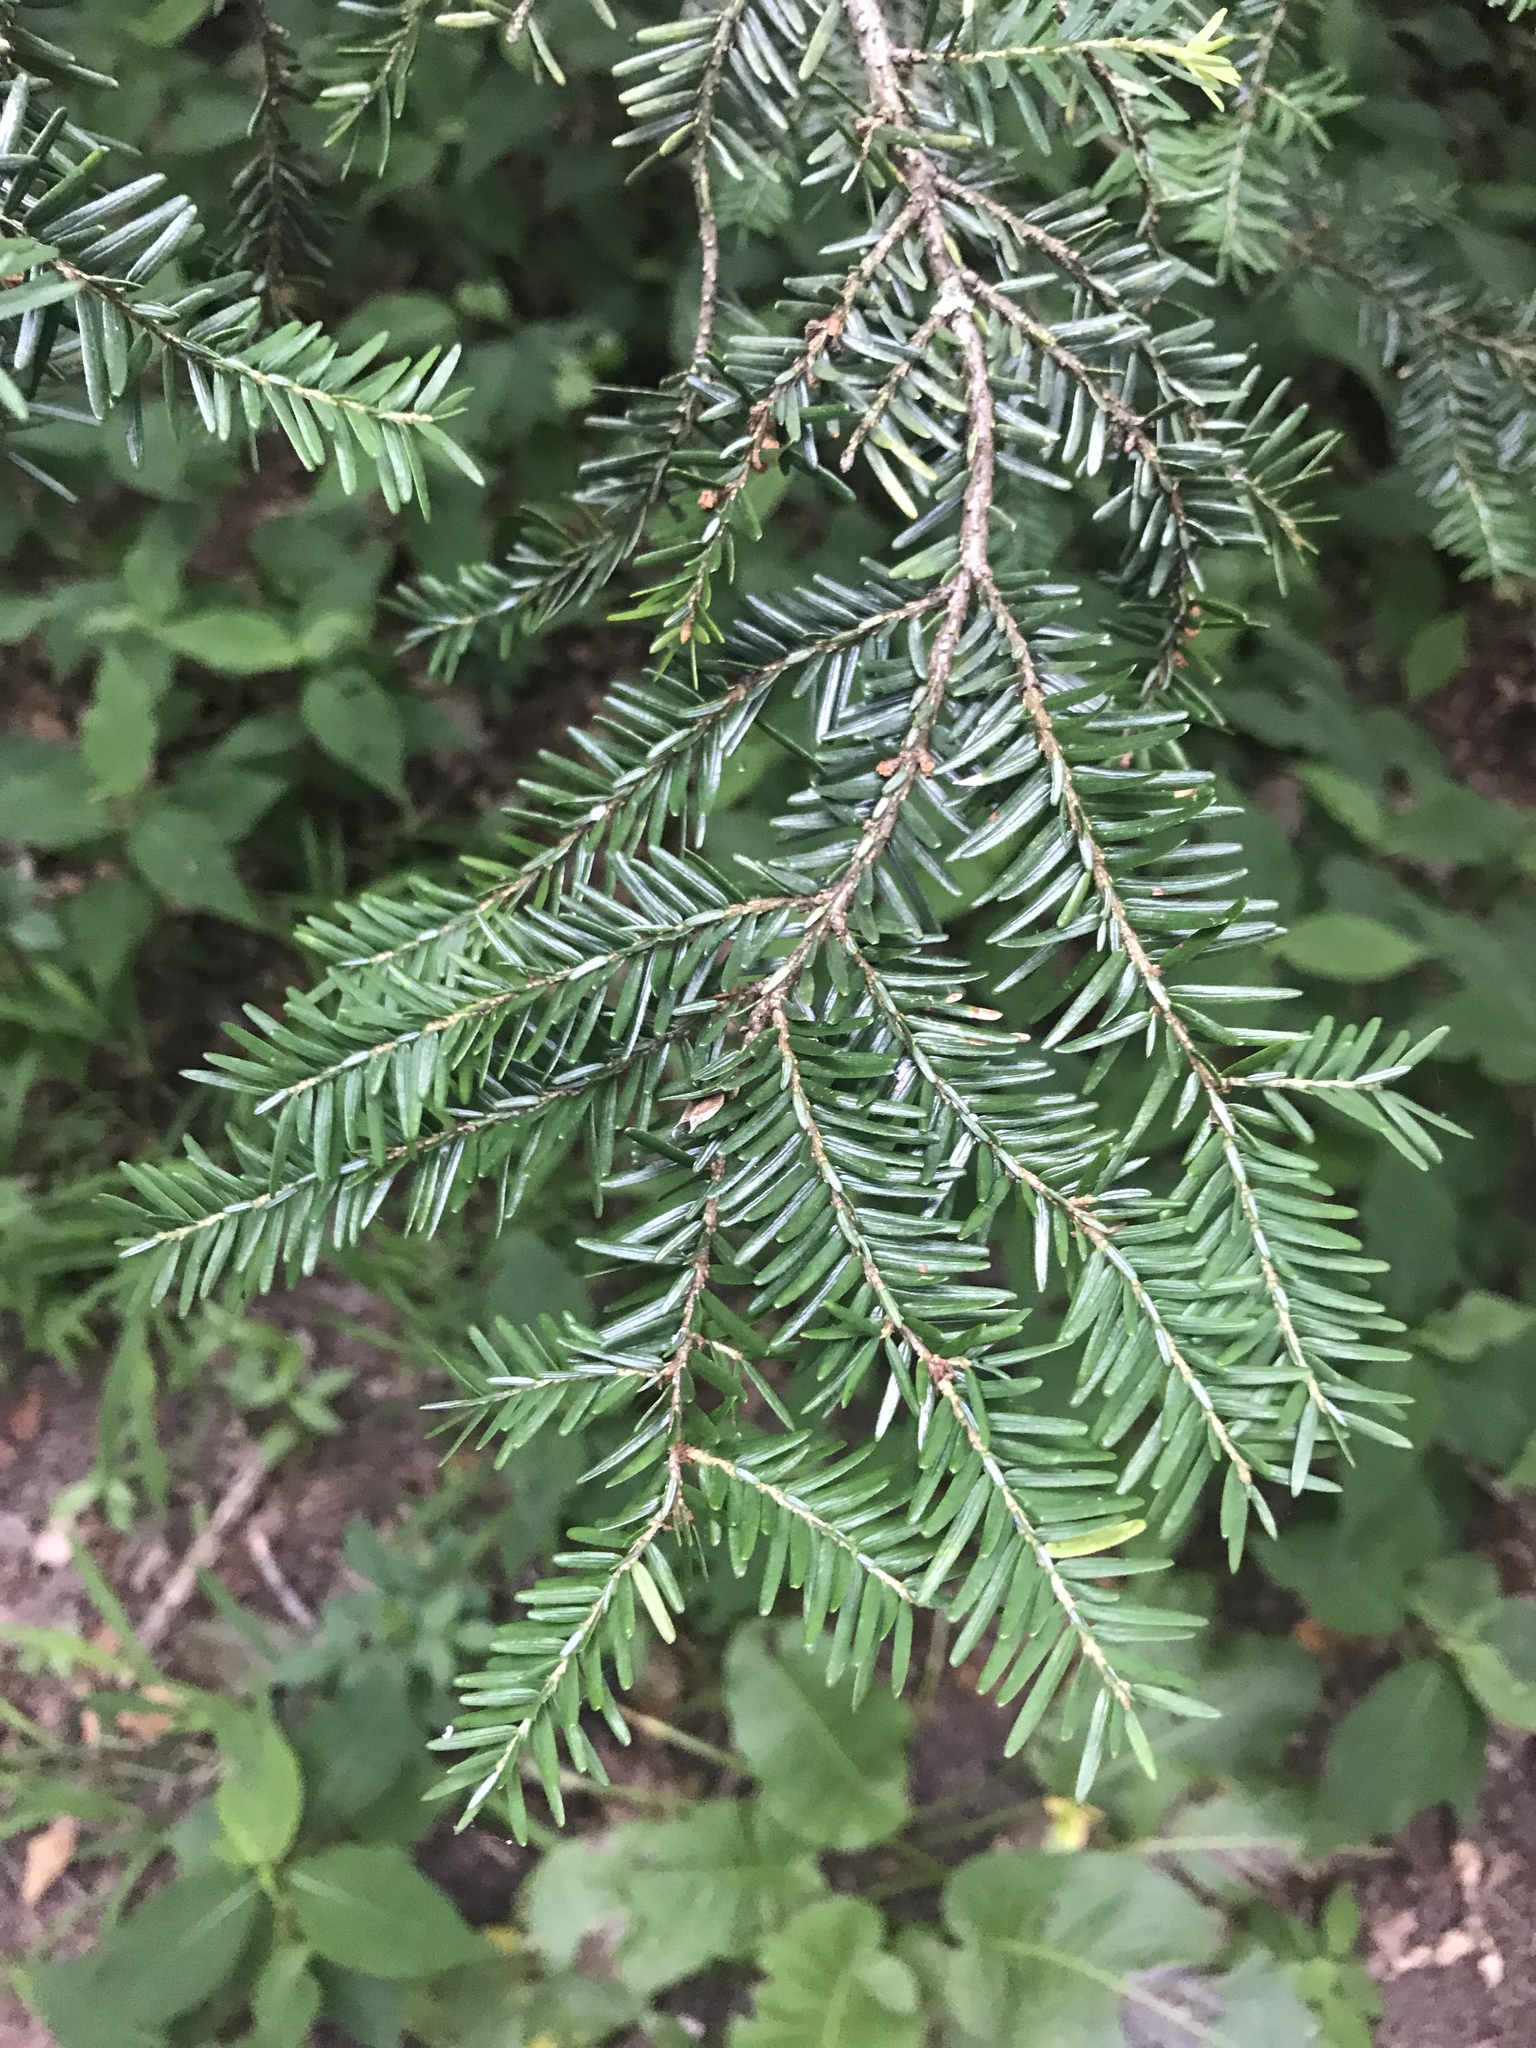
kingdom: Plantae
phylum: Tracheophyta
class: Pinopsida
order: Pinales
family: Pinaceae
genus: Tsuga
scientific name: Tsuga canadensis
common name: Eastern hemlock
